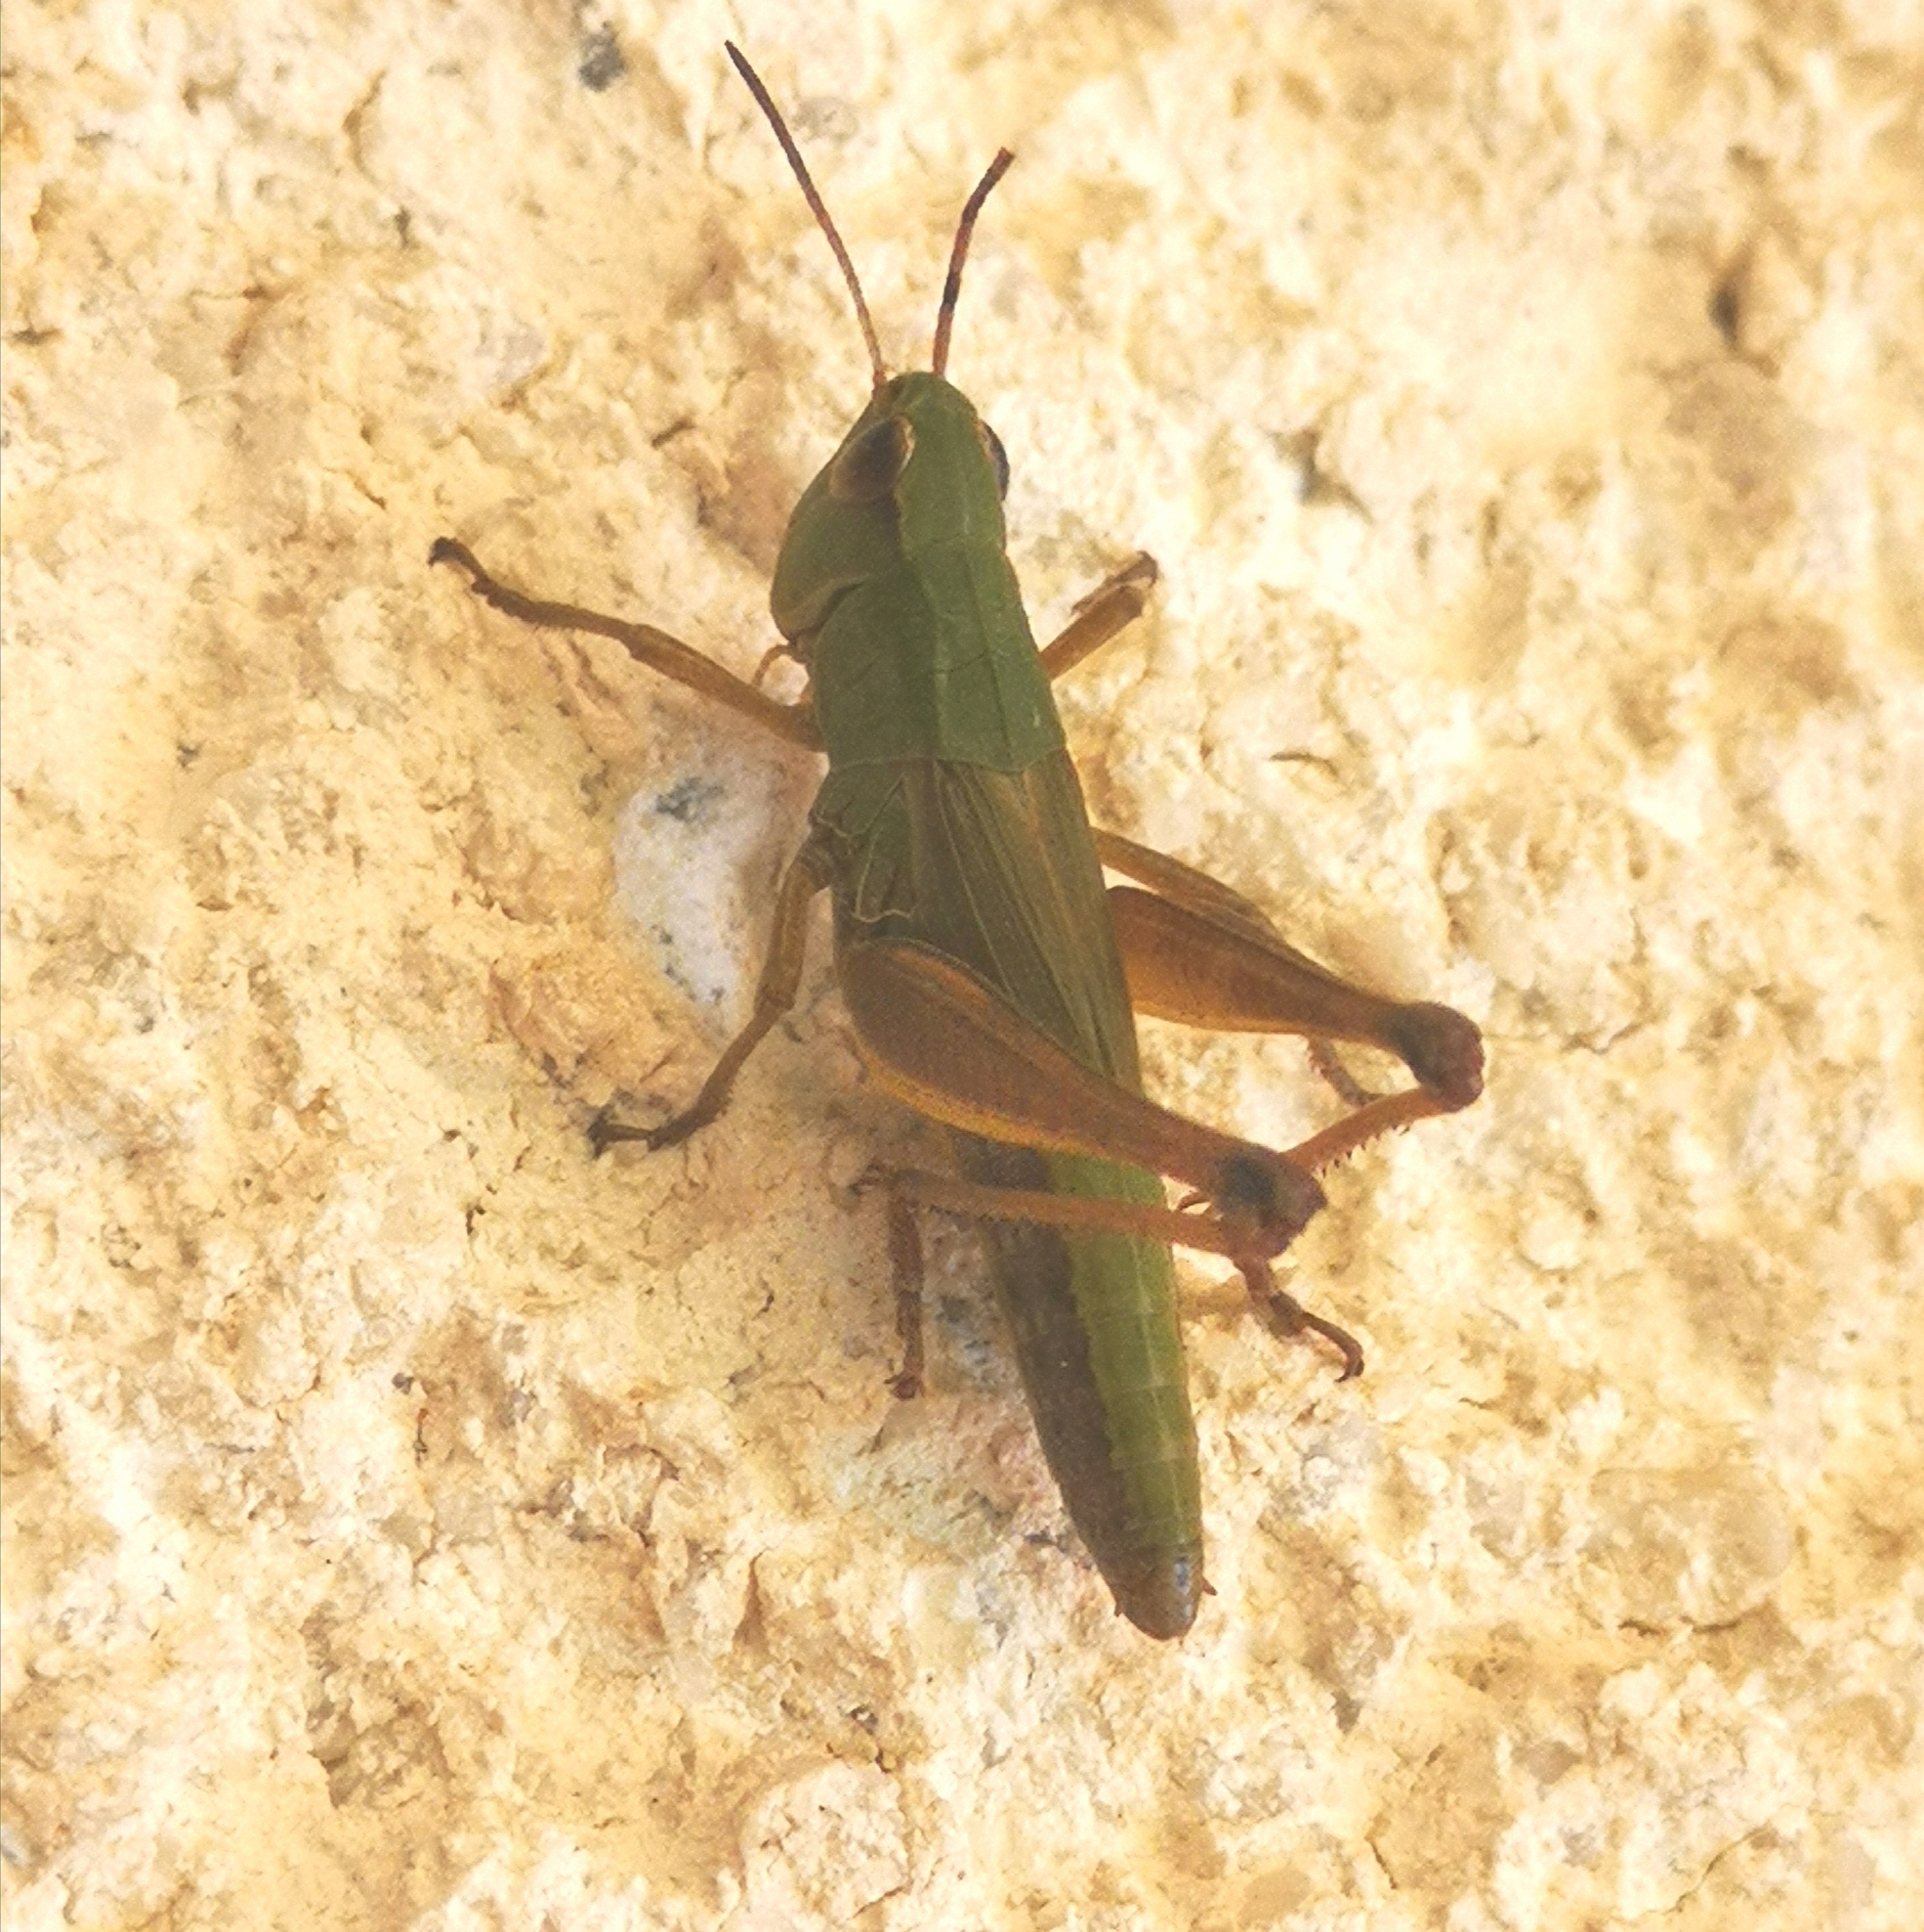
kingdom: Animalia
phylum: Arthropoda
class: Insecta
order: Orthoptera
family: Acrididae
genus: Pseudochorthippus
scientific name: Pseudochorthippus parallelus
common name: Meadow grasshopper
